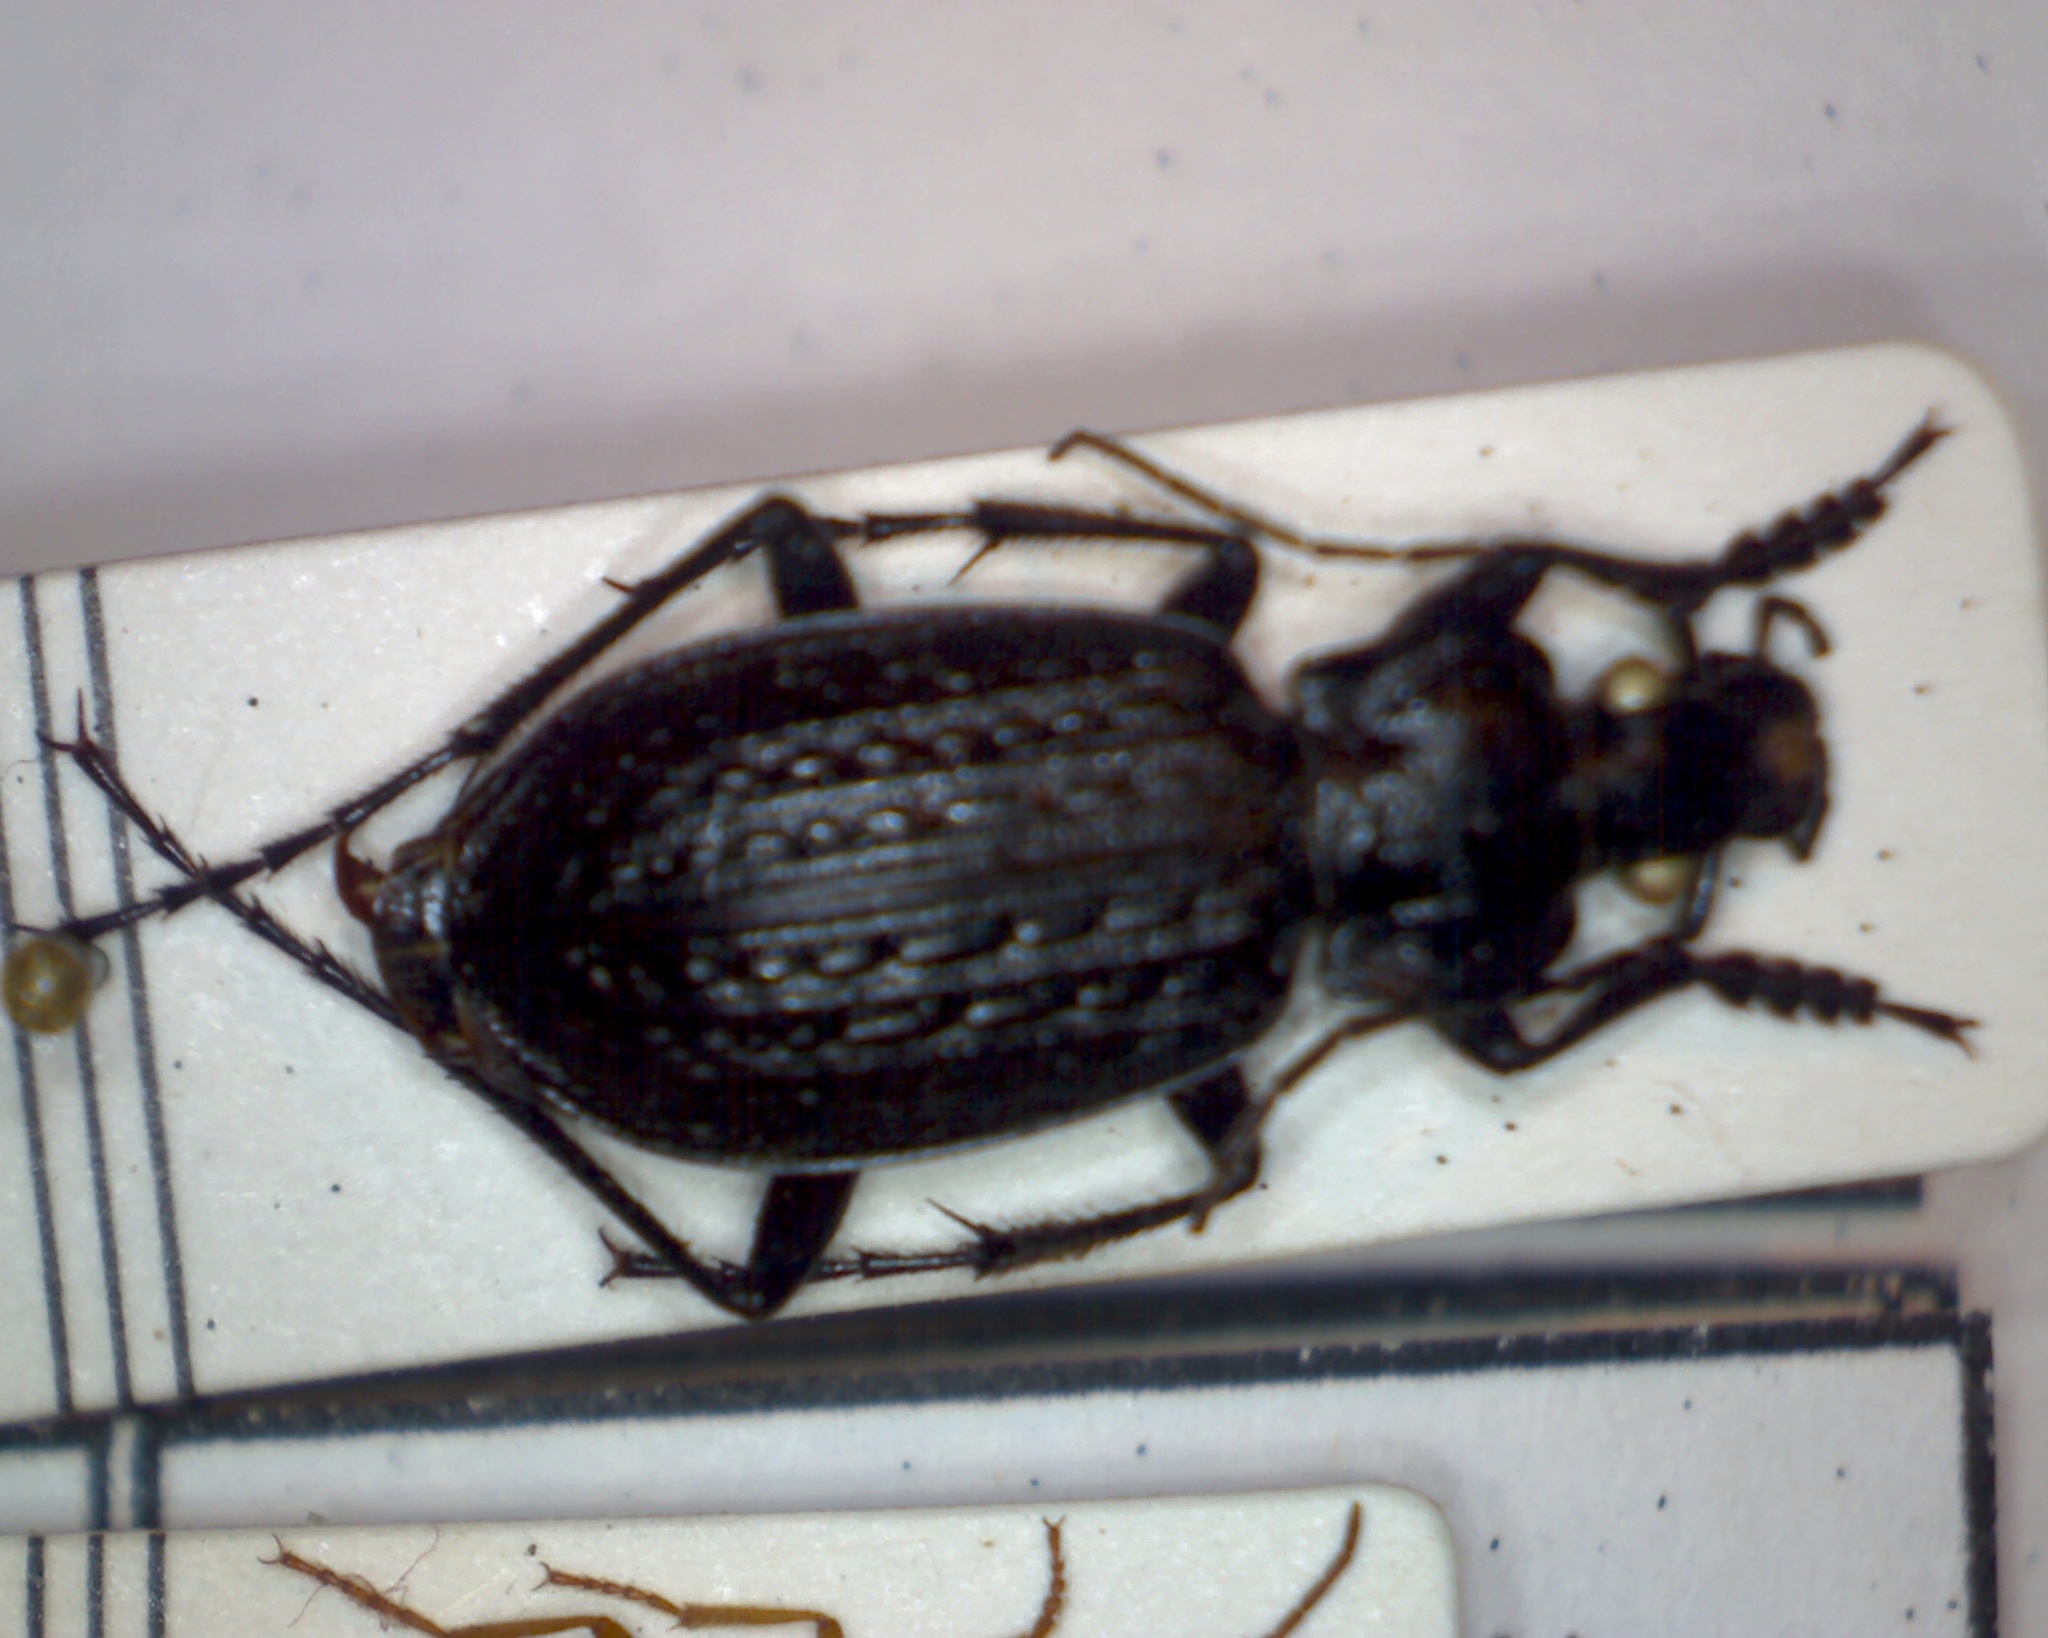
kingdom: Animalia
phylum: Arthropoda
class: Insecta
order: Coleoptera
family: Carabidae
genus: Carabus
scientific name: Carabus granulatus
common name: Granulate ground beetle
